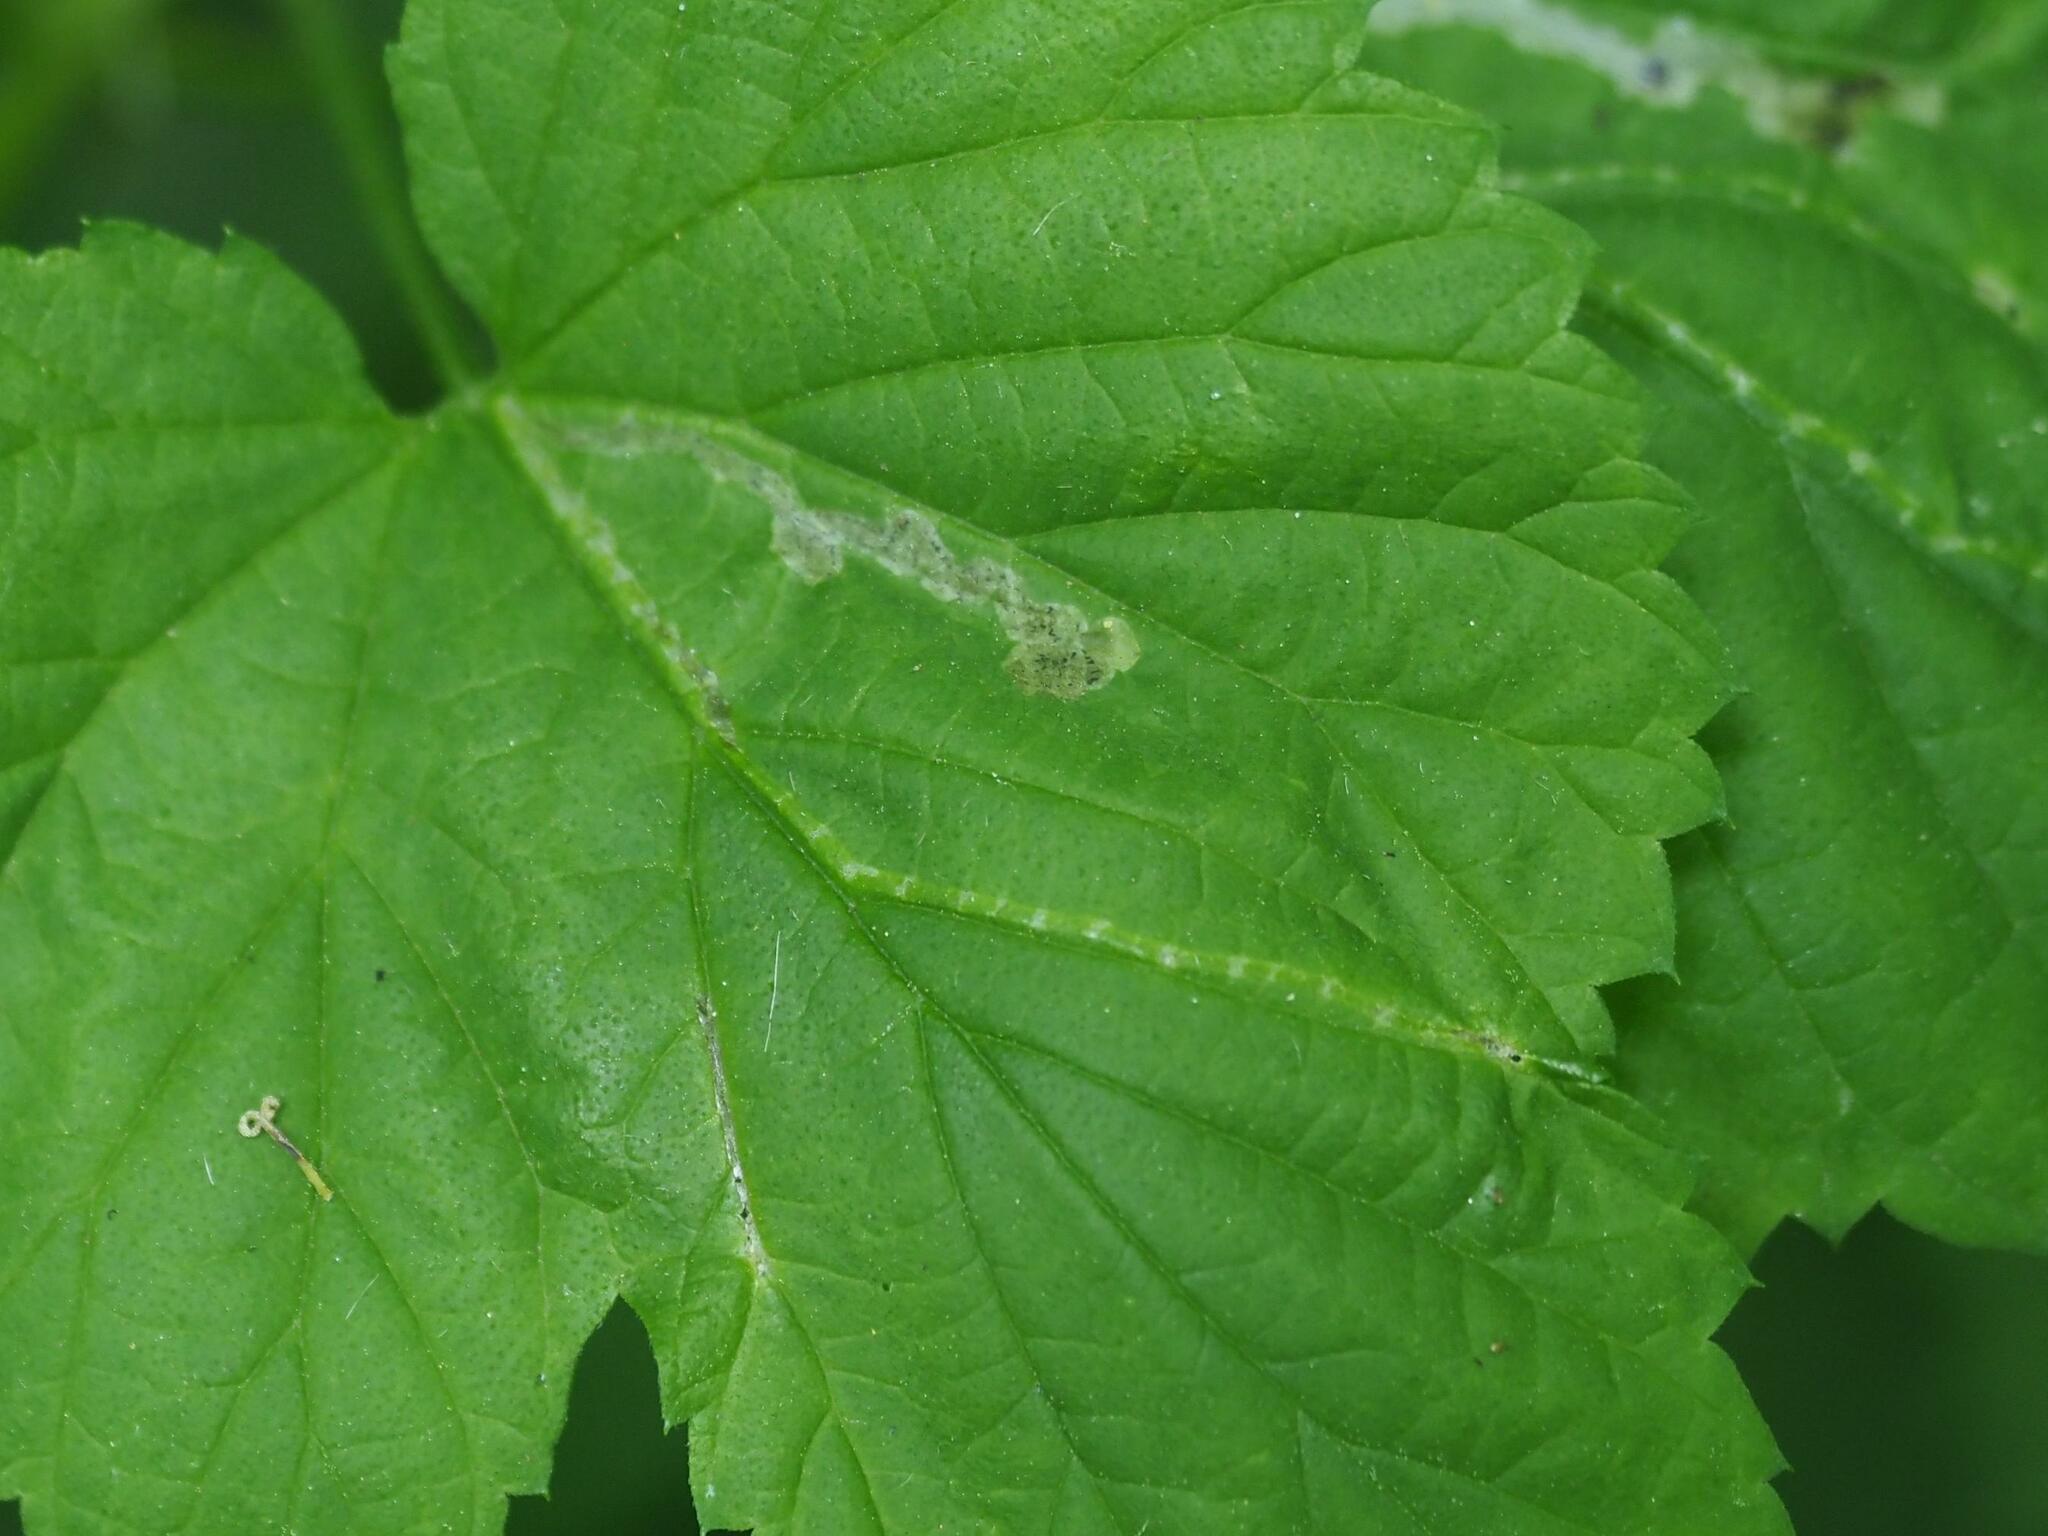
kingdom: Animalia
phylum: Arthropoda
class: Insecta
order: Diptera
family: Agromyzidae
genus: Agromyza
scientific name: Agromyza igniceps
